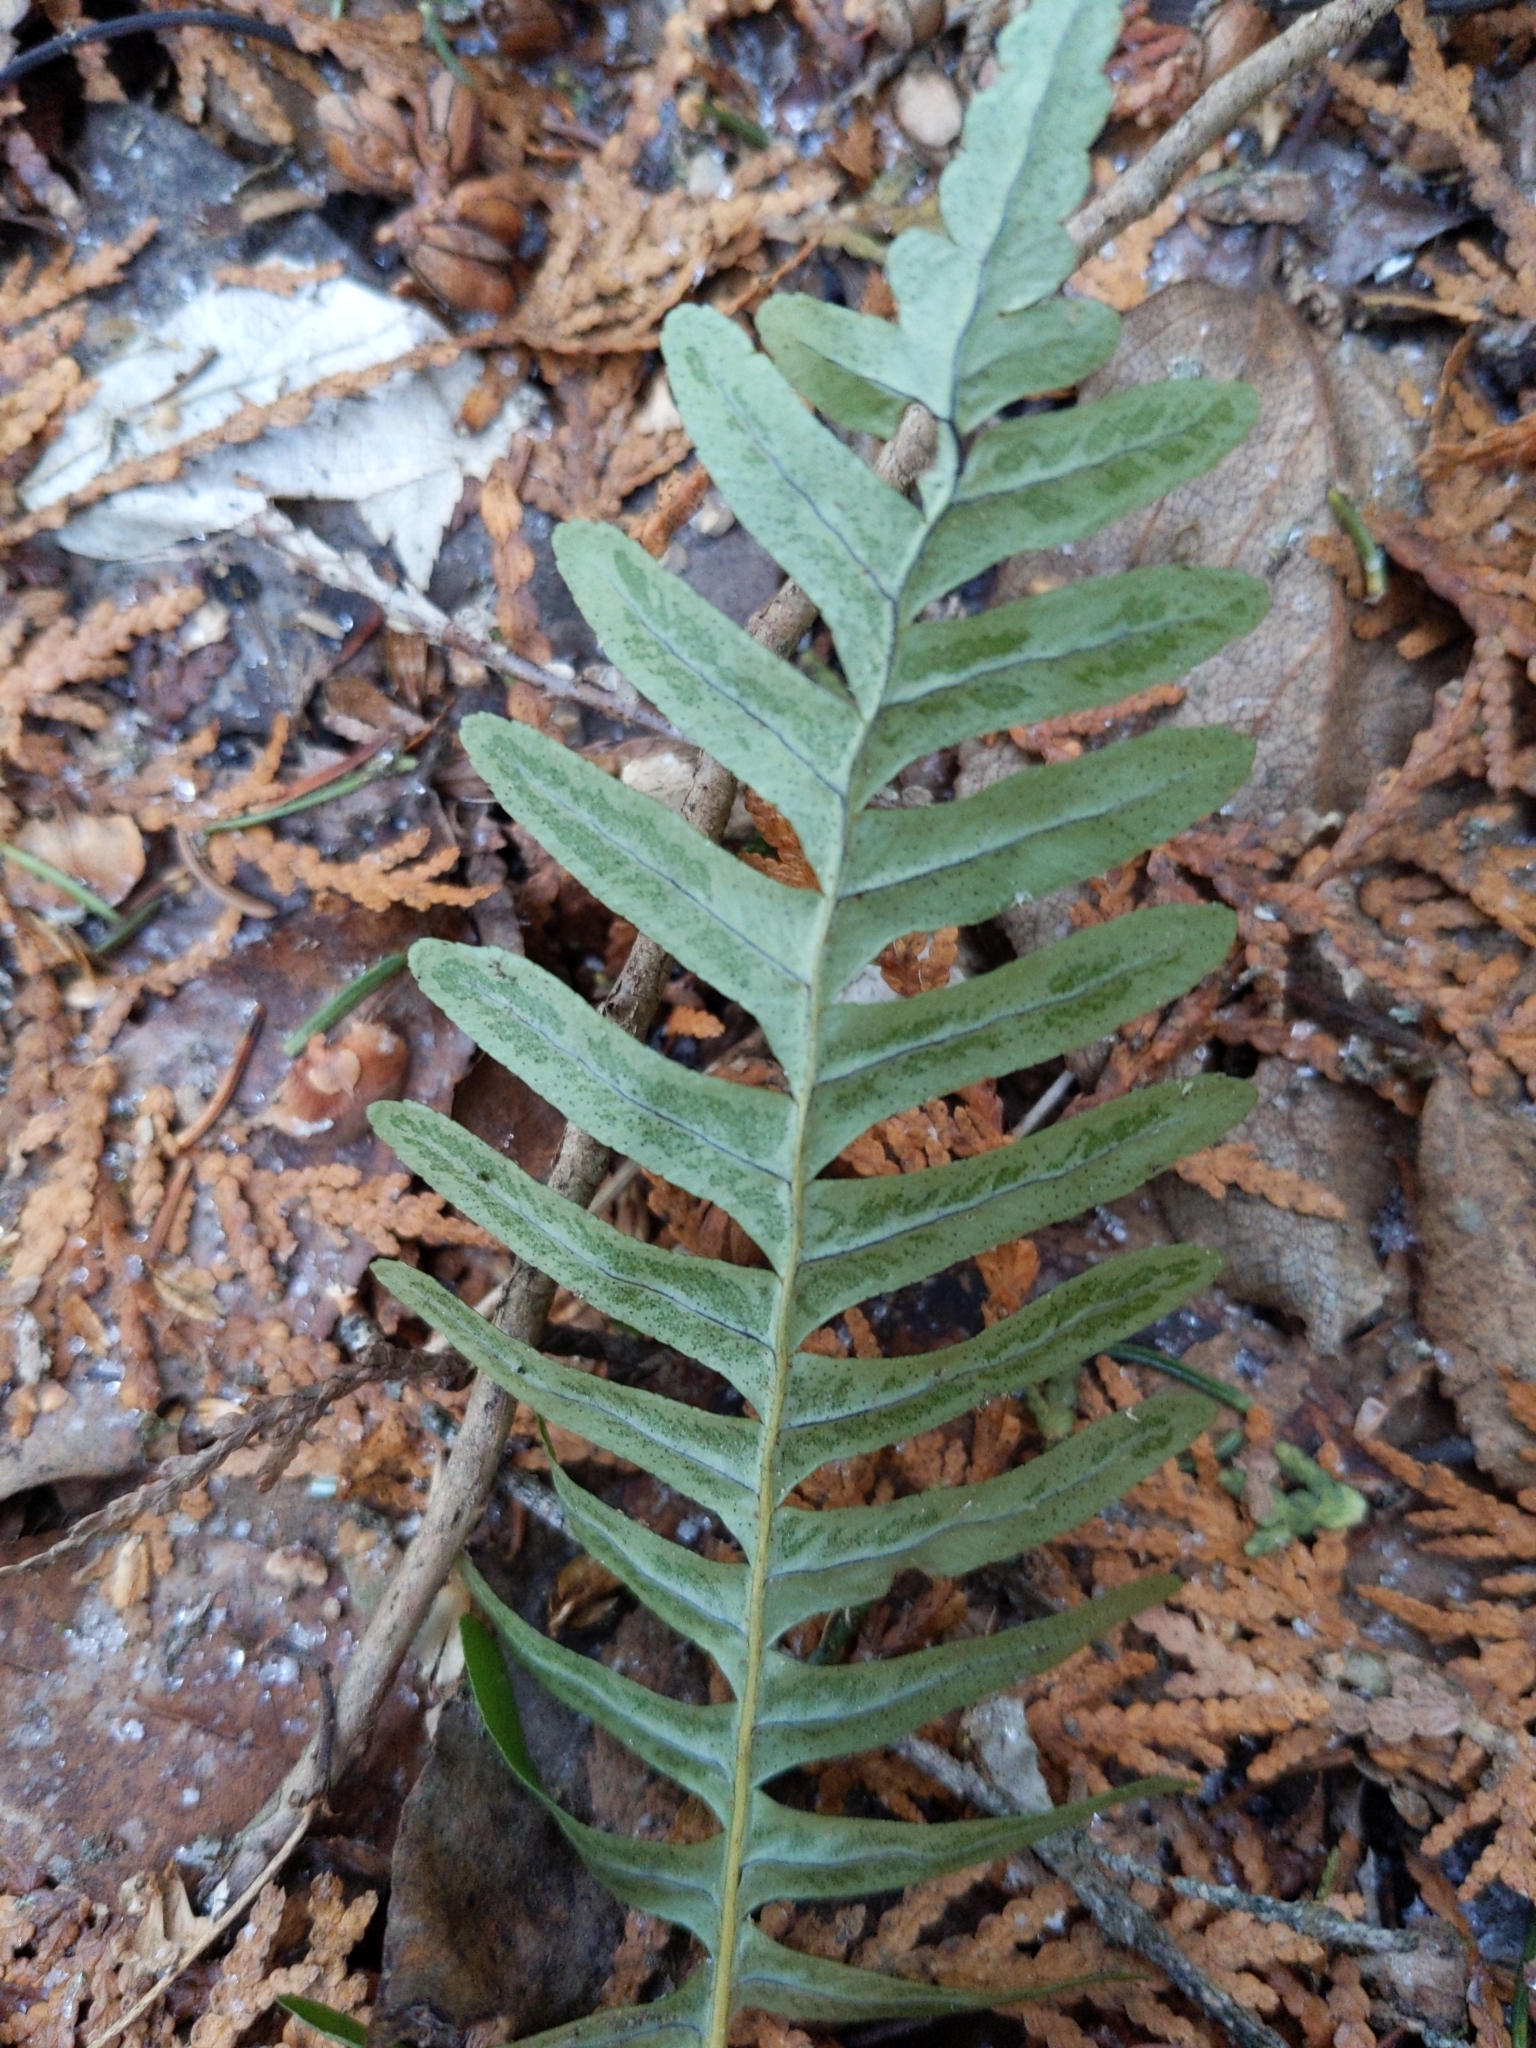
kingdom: Plantae
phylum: Tracheophyta
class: Polypodiopsida
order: Polypodiales
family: Polypodiaceae
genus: Polypodium
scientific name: Polypodium virginianum
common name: American wall fern
